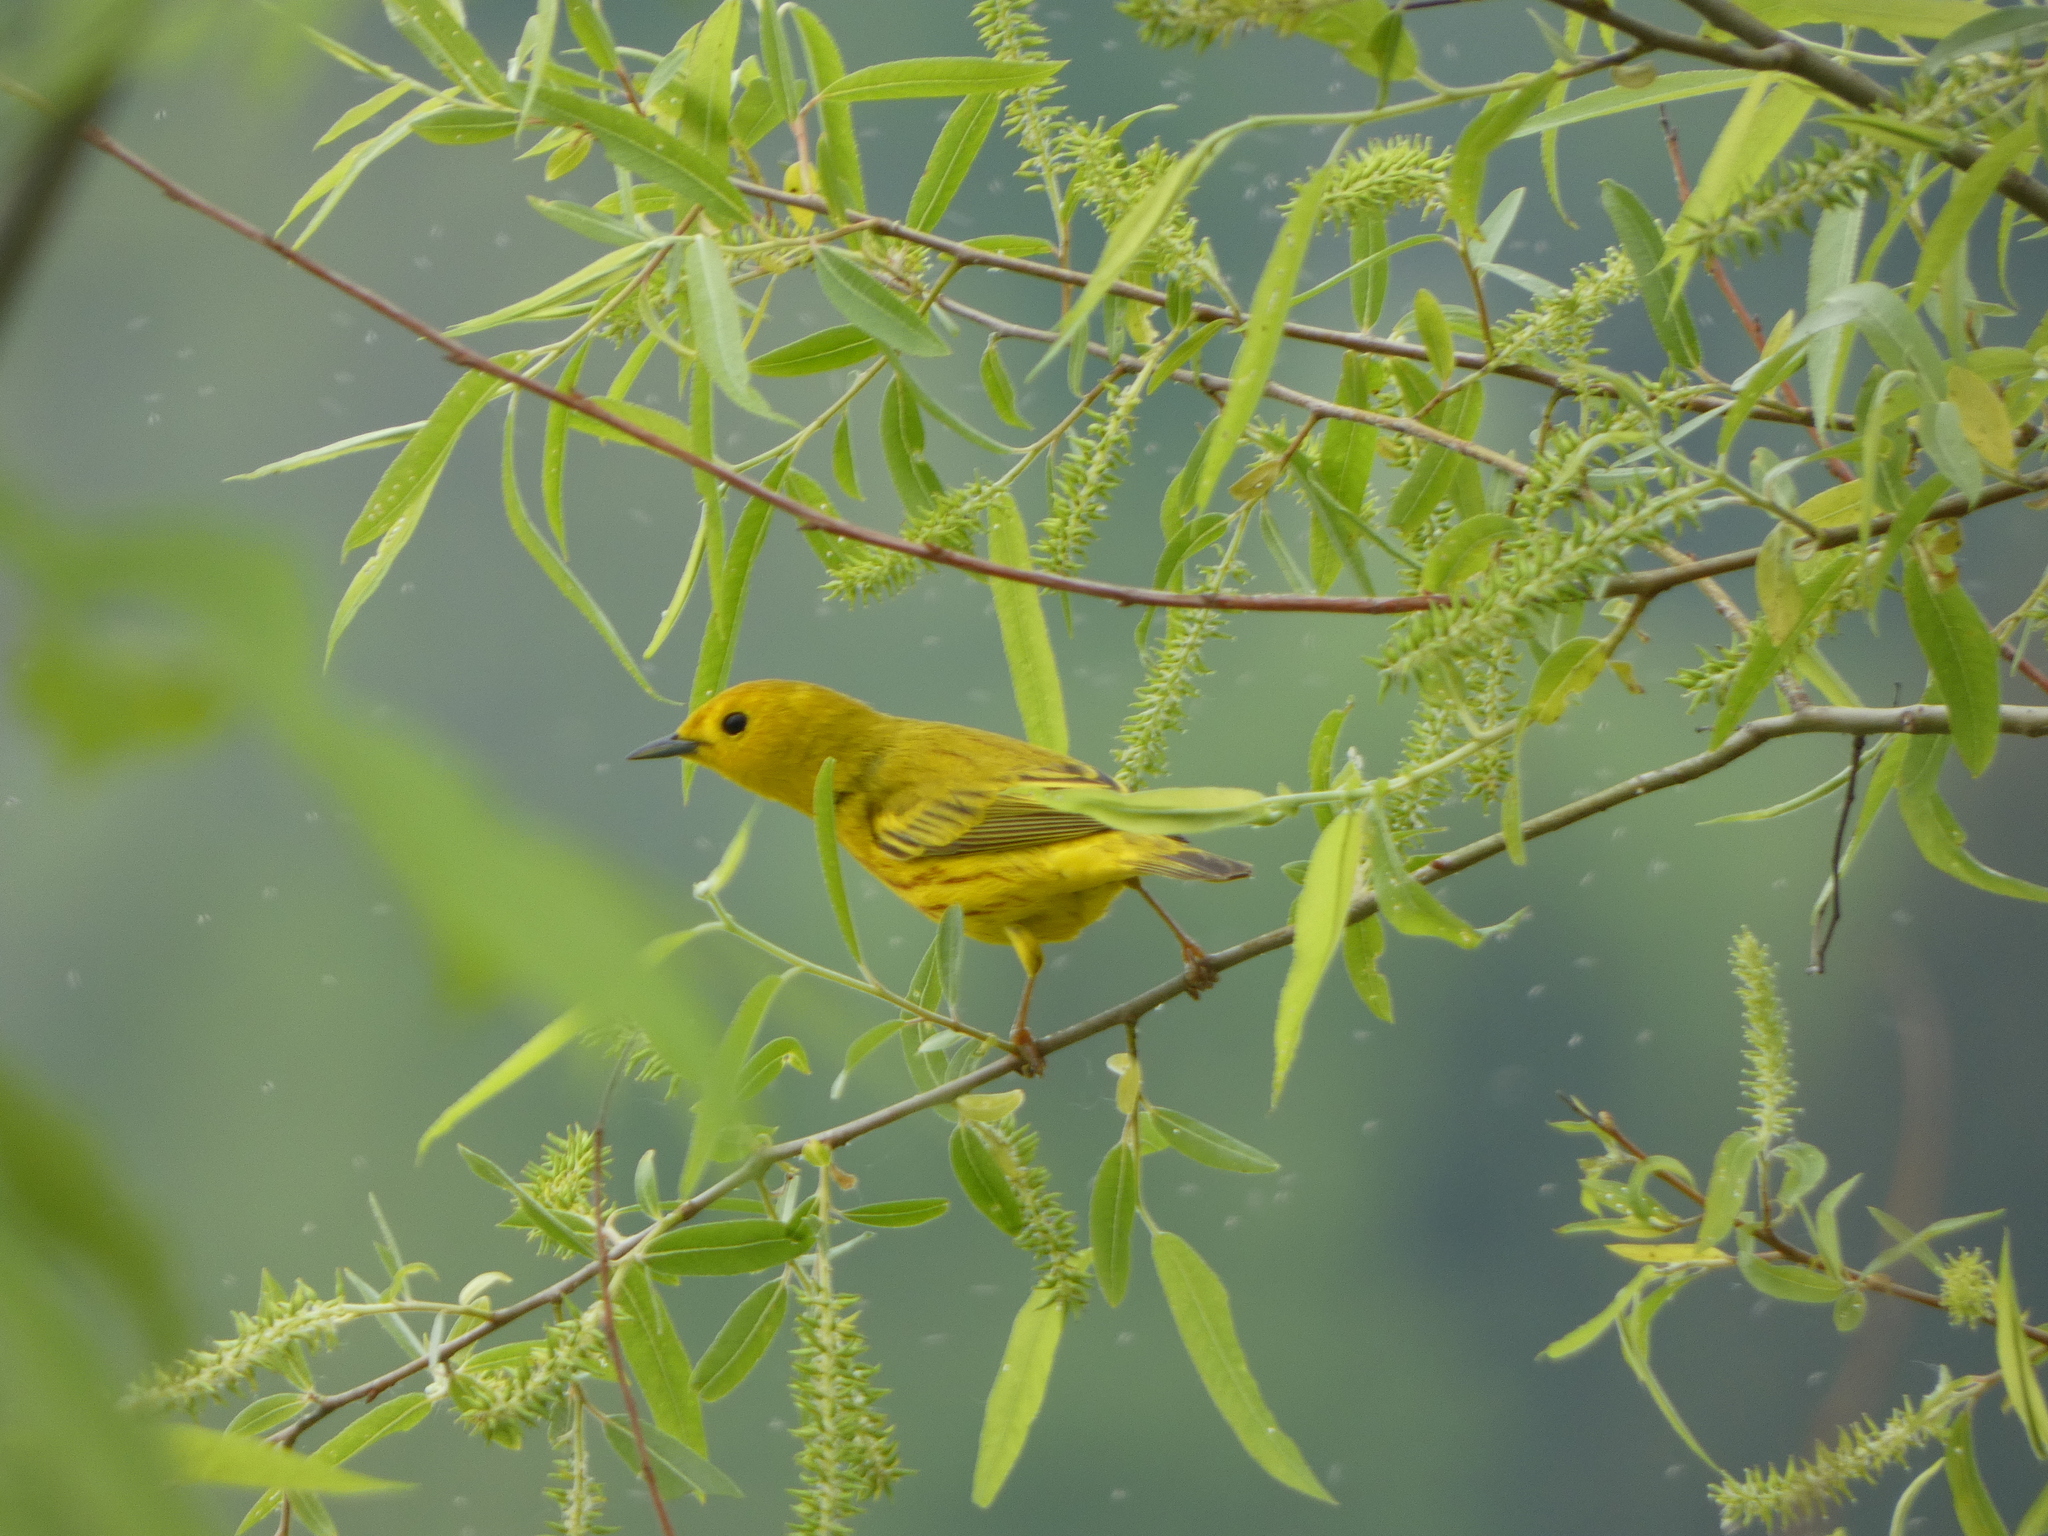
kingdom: Animalia
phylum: Chordata
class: Aves
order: Passeriformes
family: Parulidae
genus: Setophaga
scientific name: Setophaga petechia
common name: Yellow warbler
